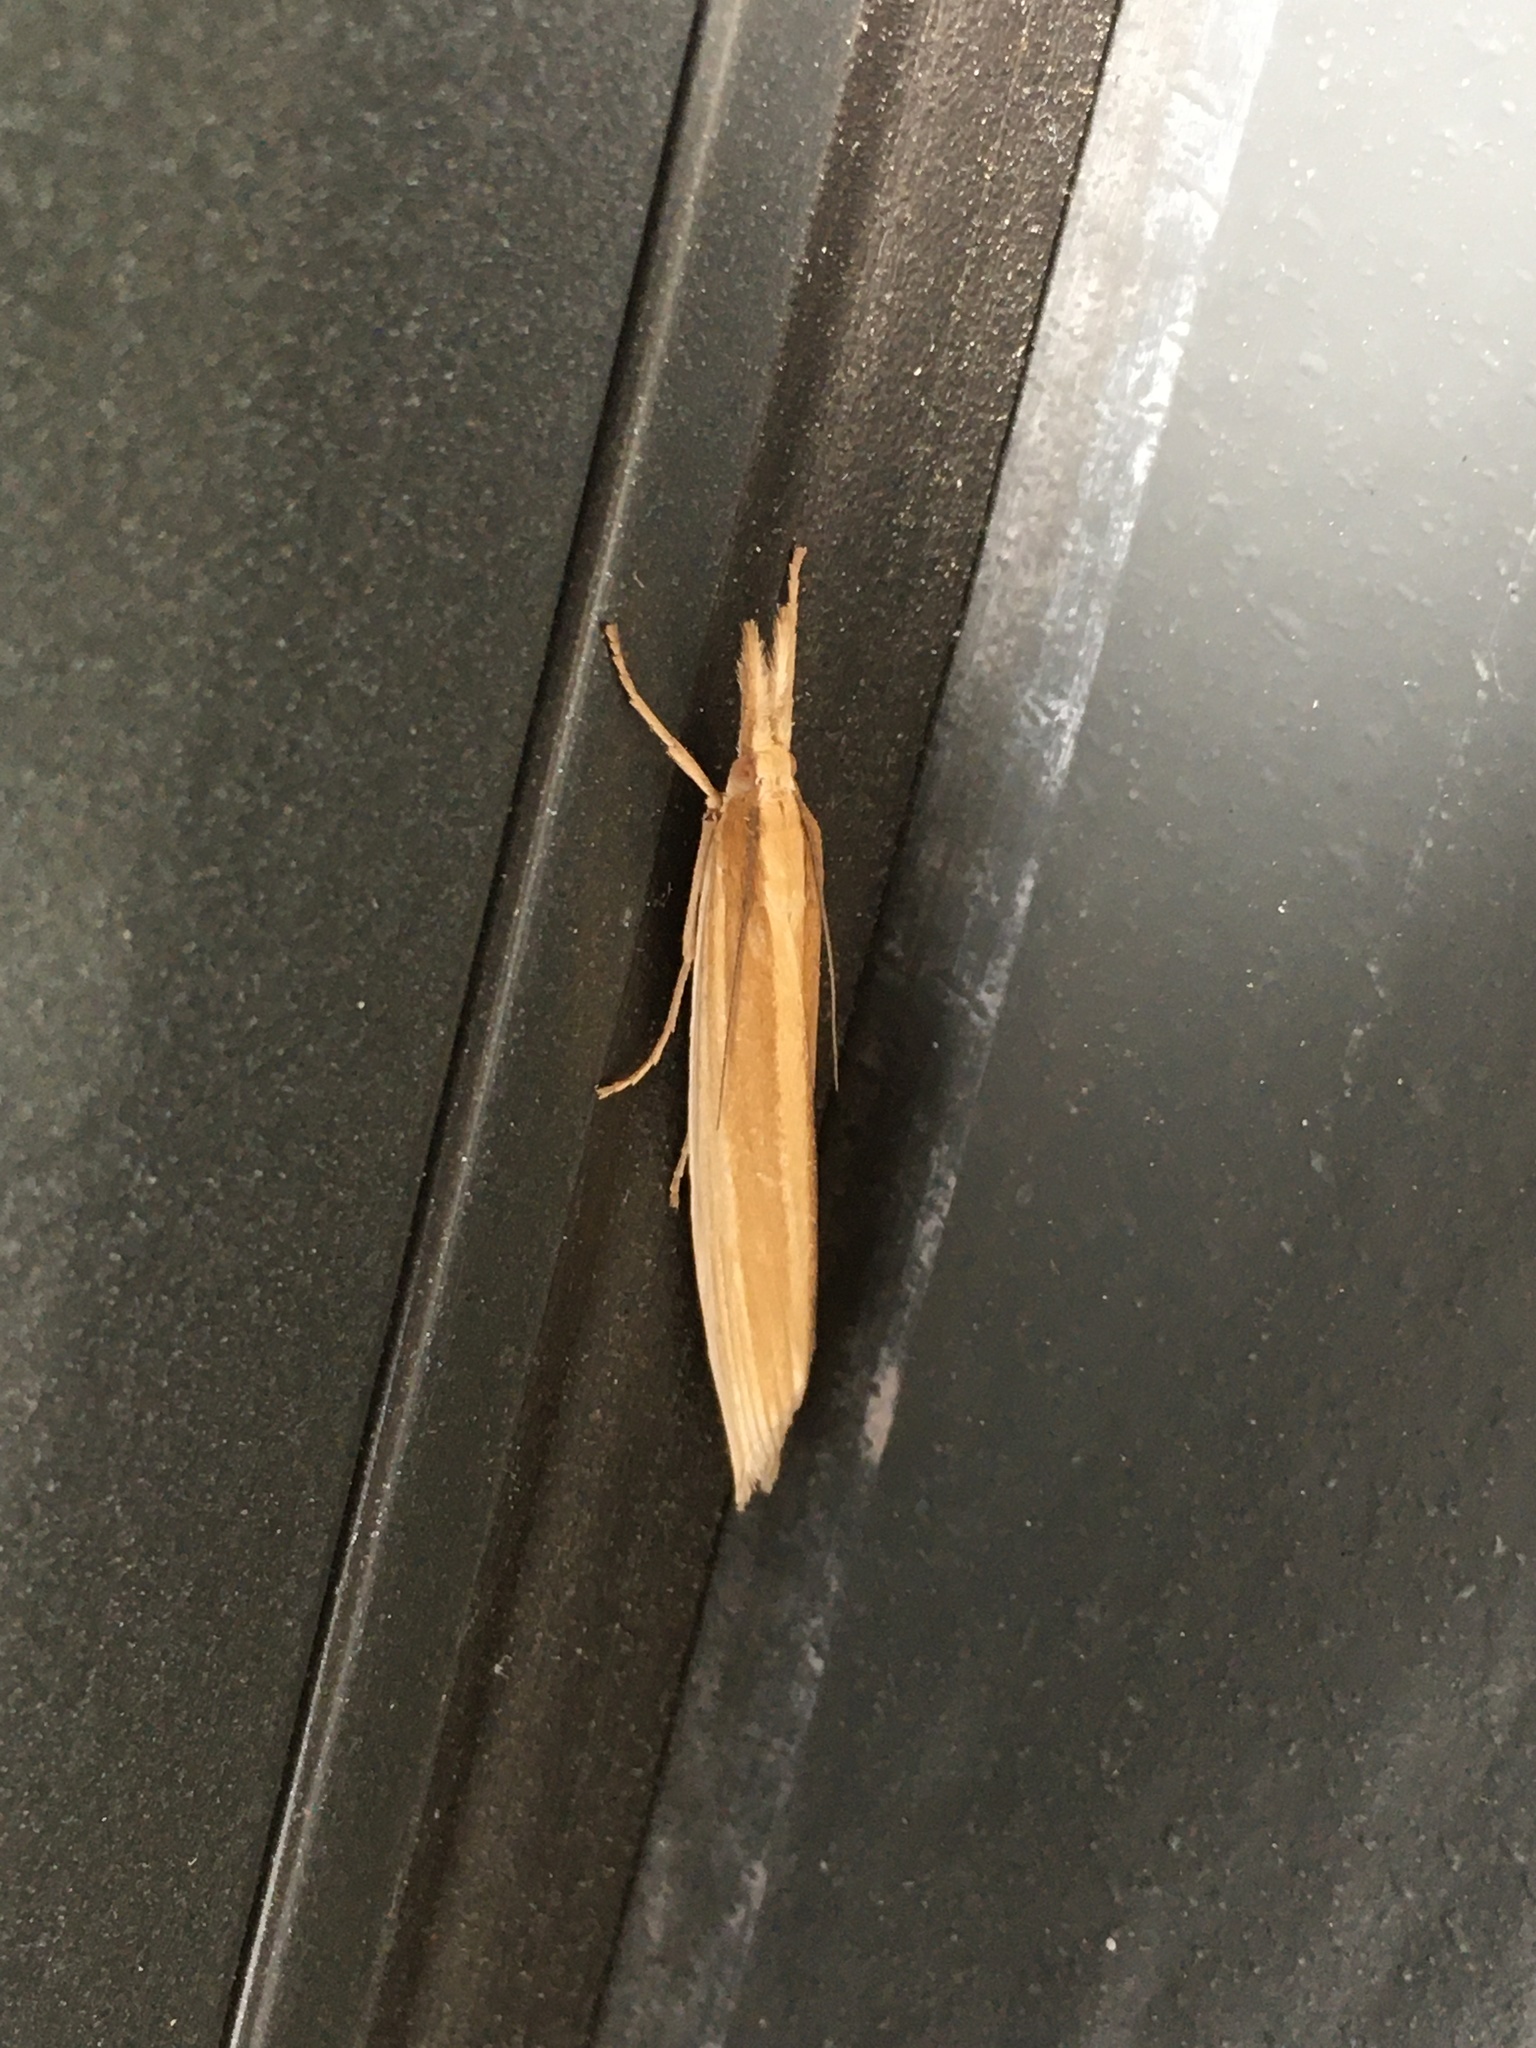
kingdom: Animalia
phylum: Arthropoda
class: Insecta
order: Lepidoptera
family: Crambidae
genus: Orocrambus
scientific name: Orocrambus angustipennis
